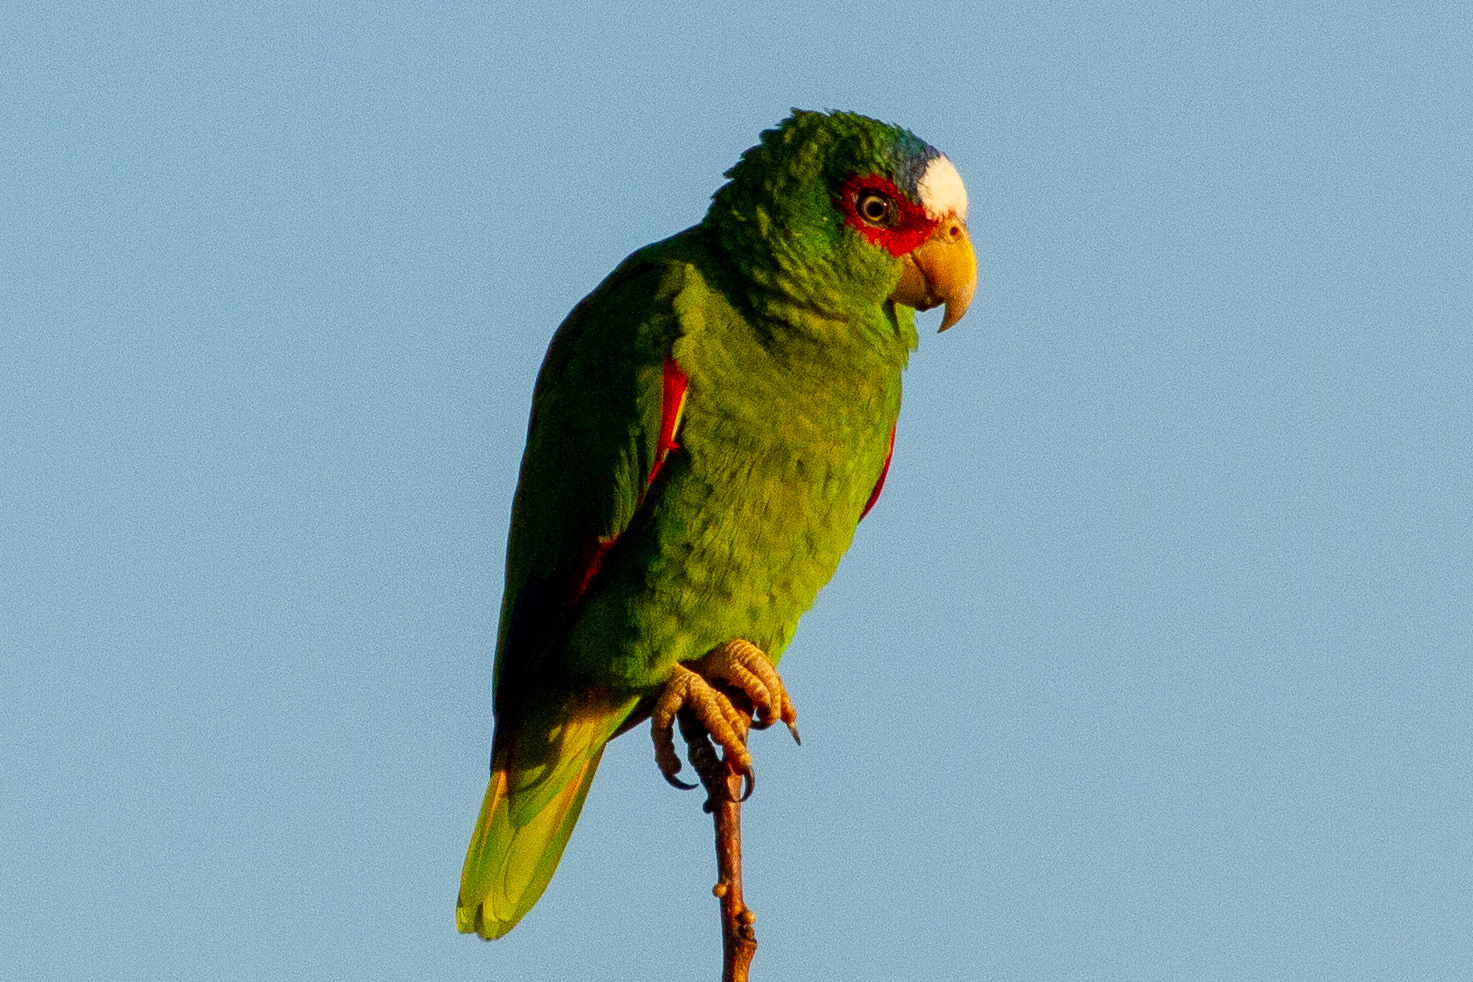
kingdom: Animalia
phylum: Chordata
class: Aves
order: Psittaciformes
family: Psittacidae
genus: Amazona
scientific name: Amazona albifrons
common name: White-fronted amazon
